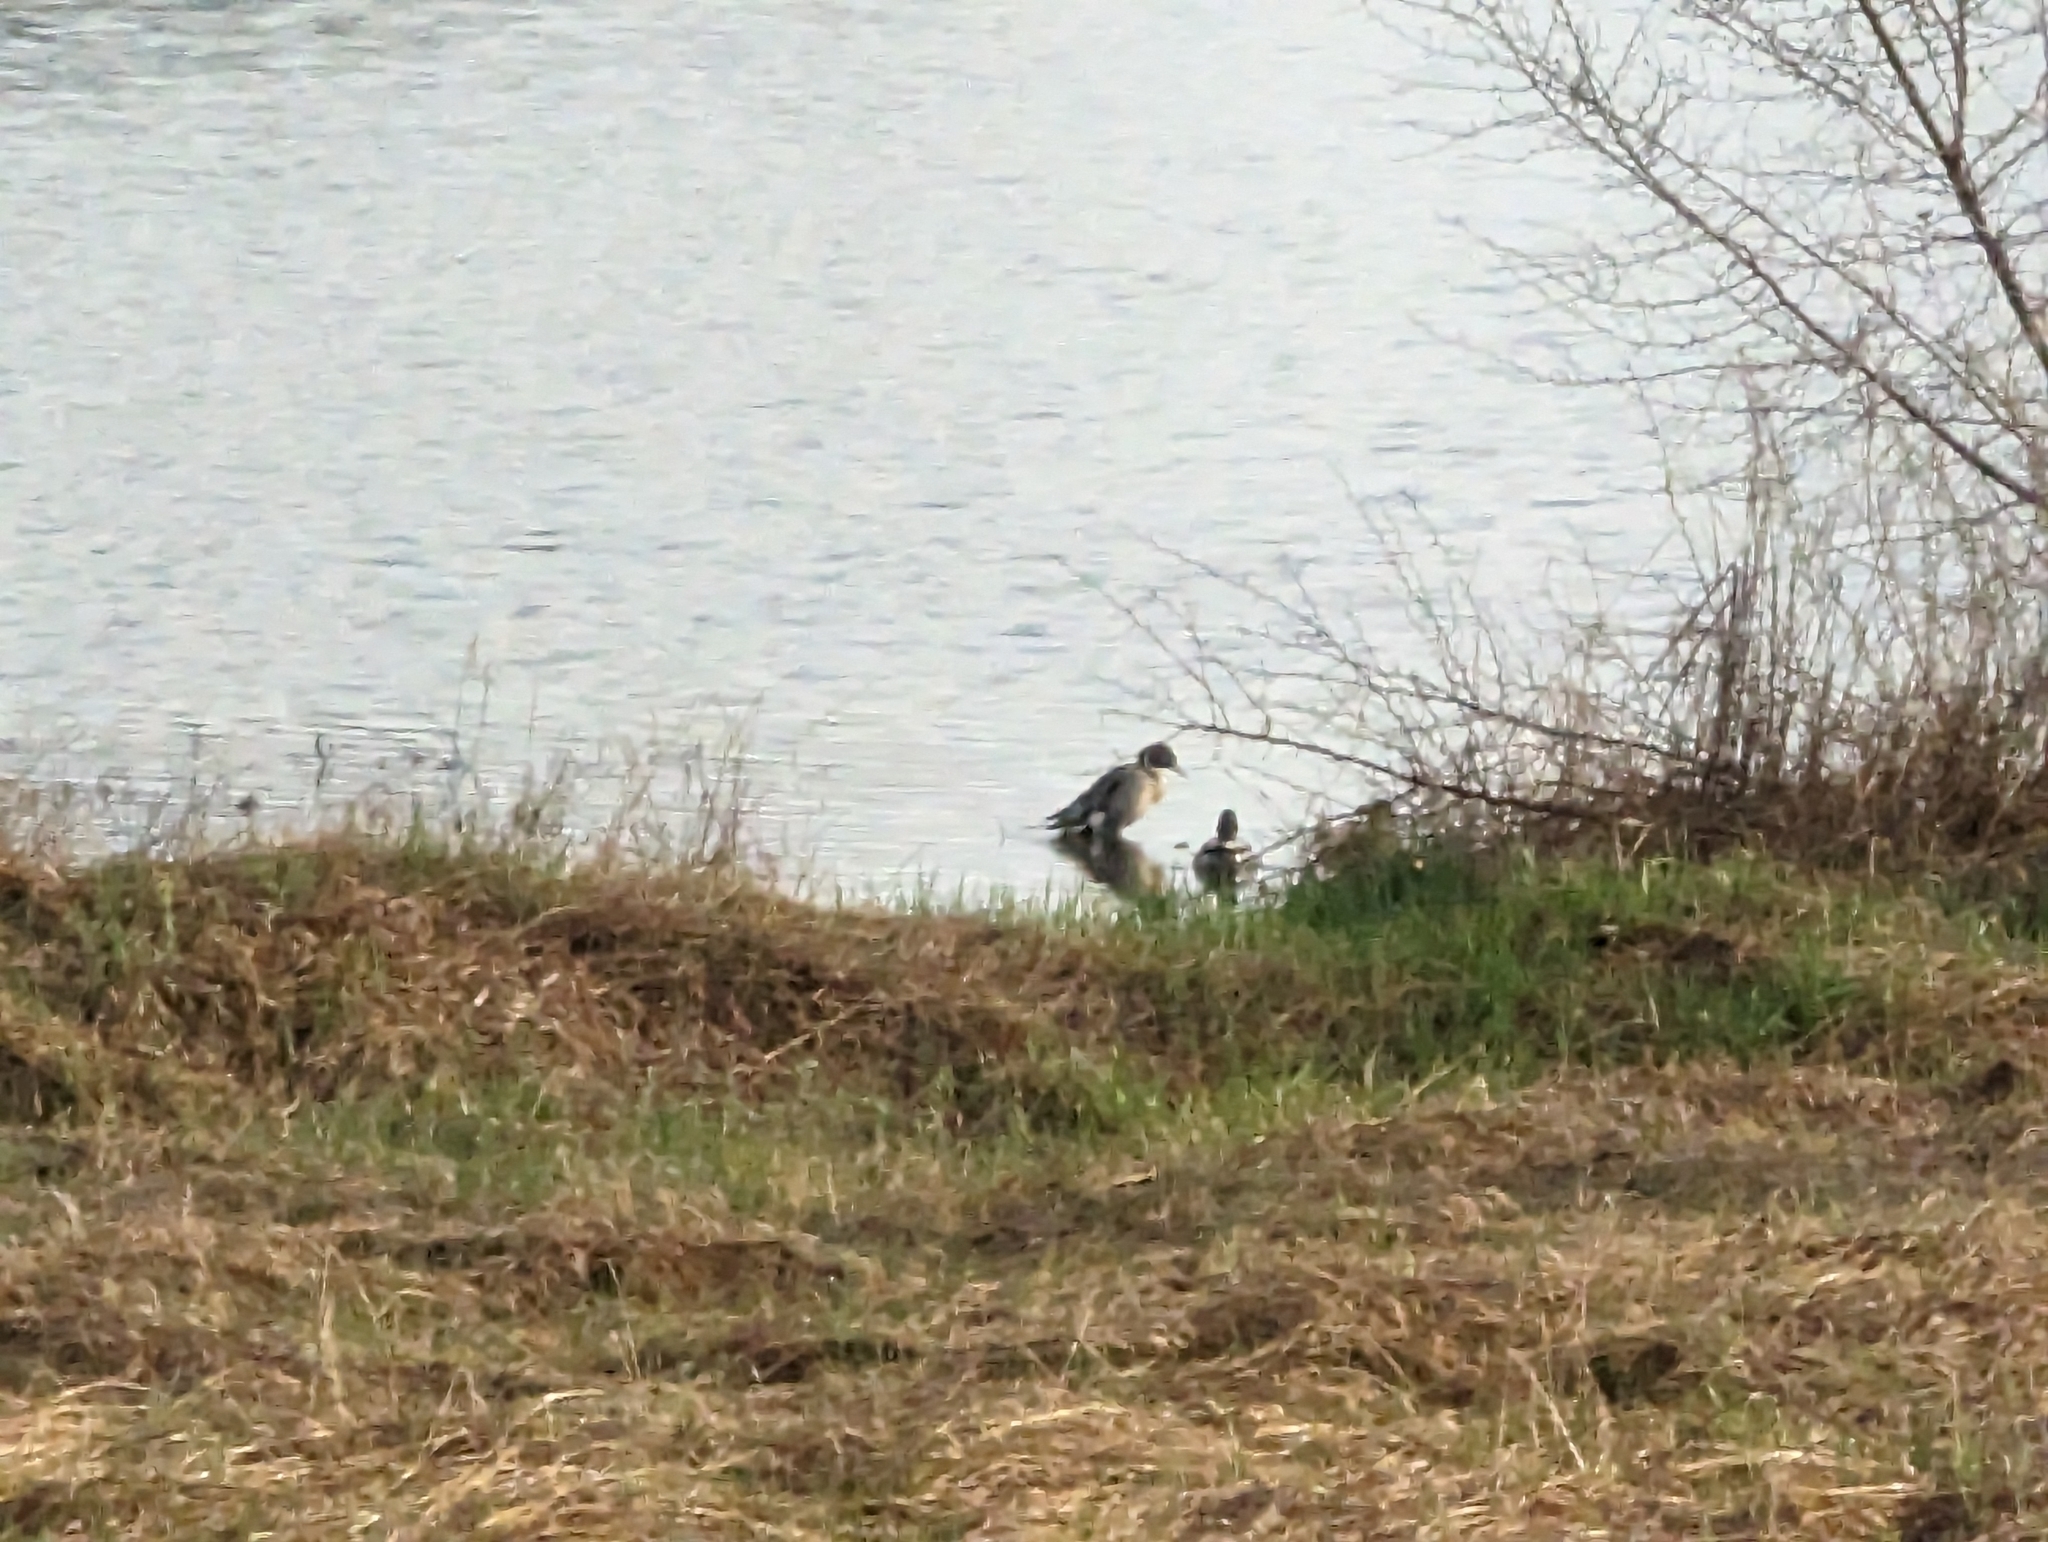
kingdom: Animalia
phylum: Chordata
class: Aves
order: Anseriformes
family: Anatidae
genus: Anas
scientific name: Anas acuta
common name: Northern pintail
